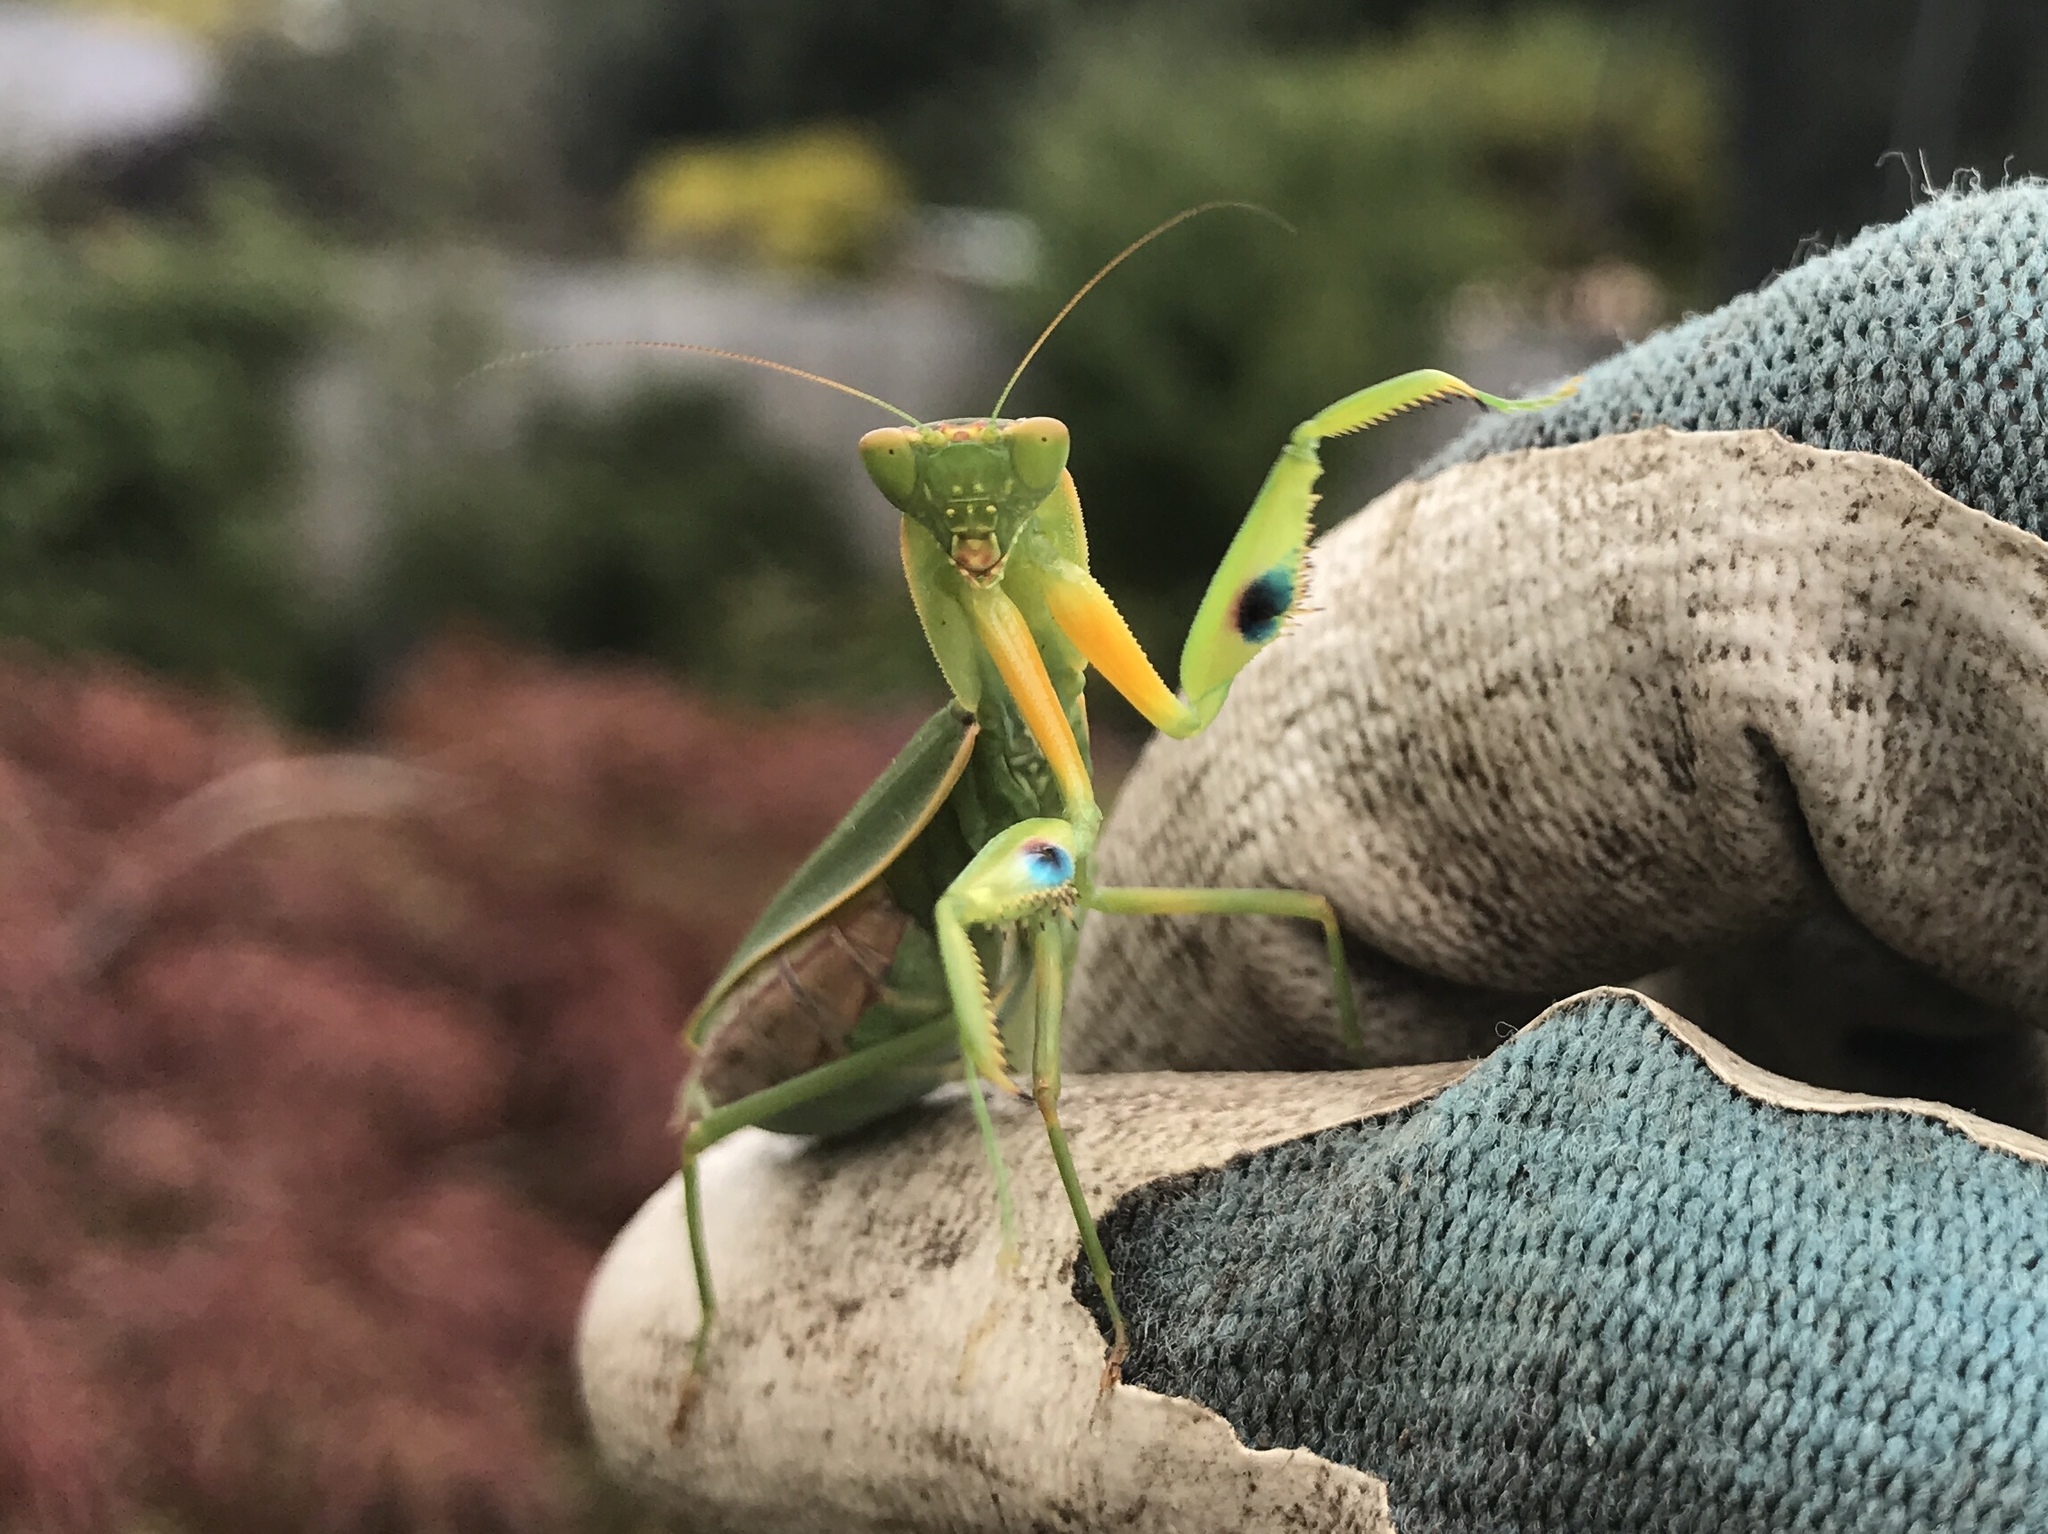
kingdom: Animalia
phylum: Arthropoda
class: Insecta
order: Mantodea
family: Mantidae
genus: Orthodera
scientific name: Orthodera novaezealandiae
